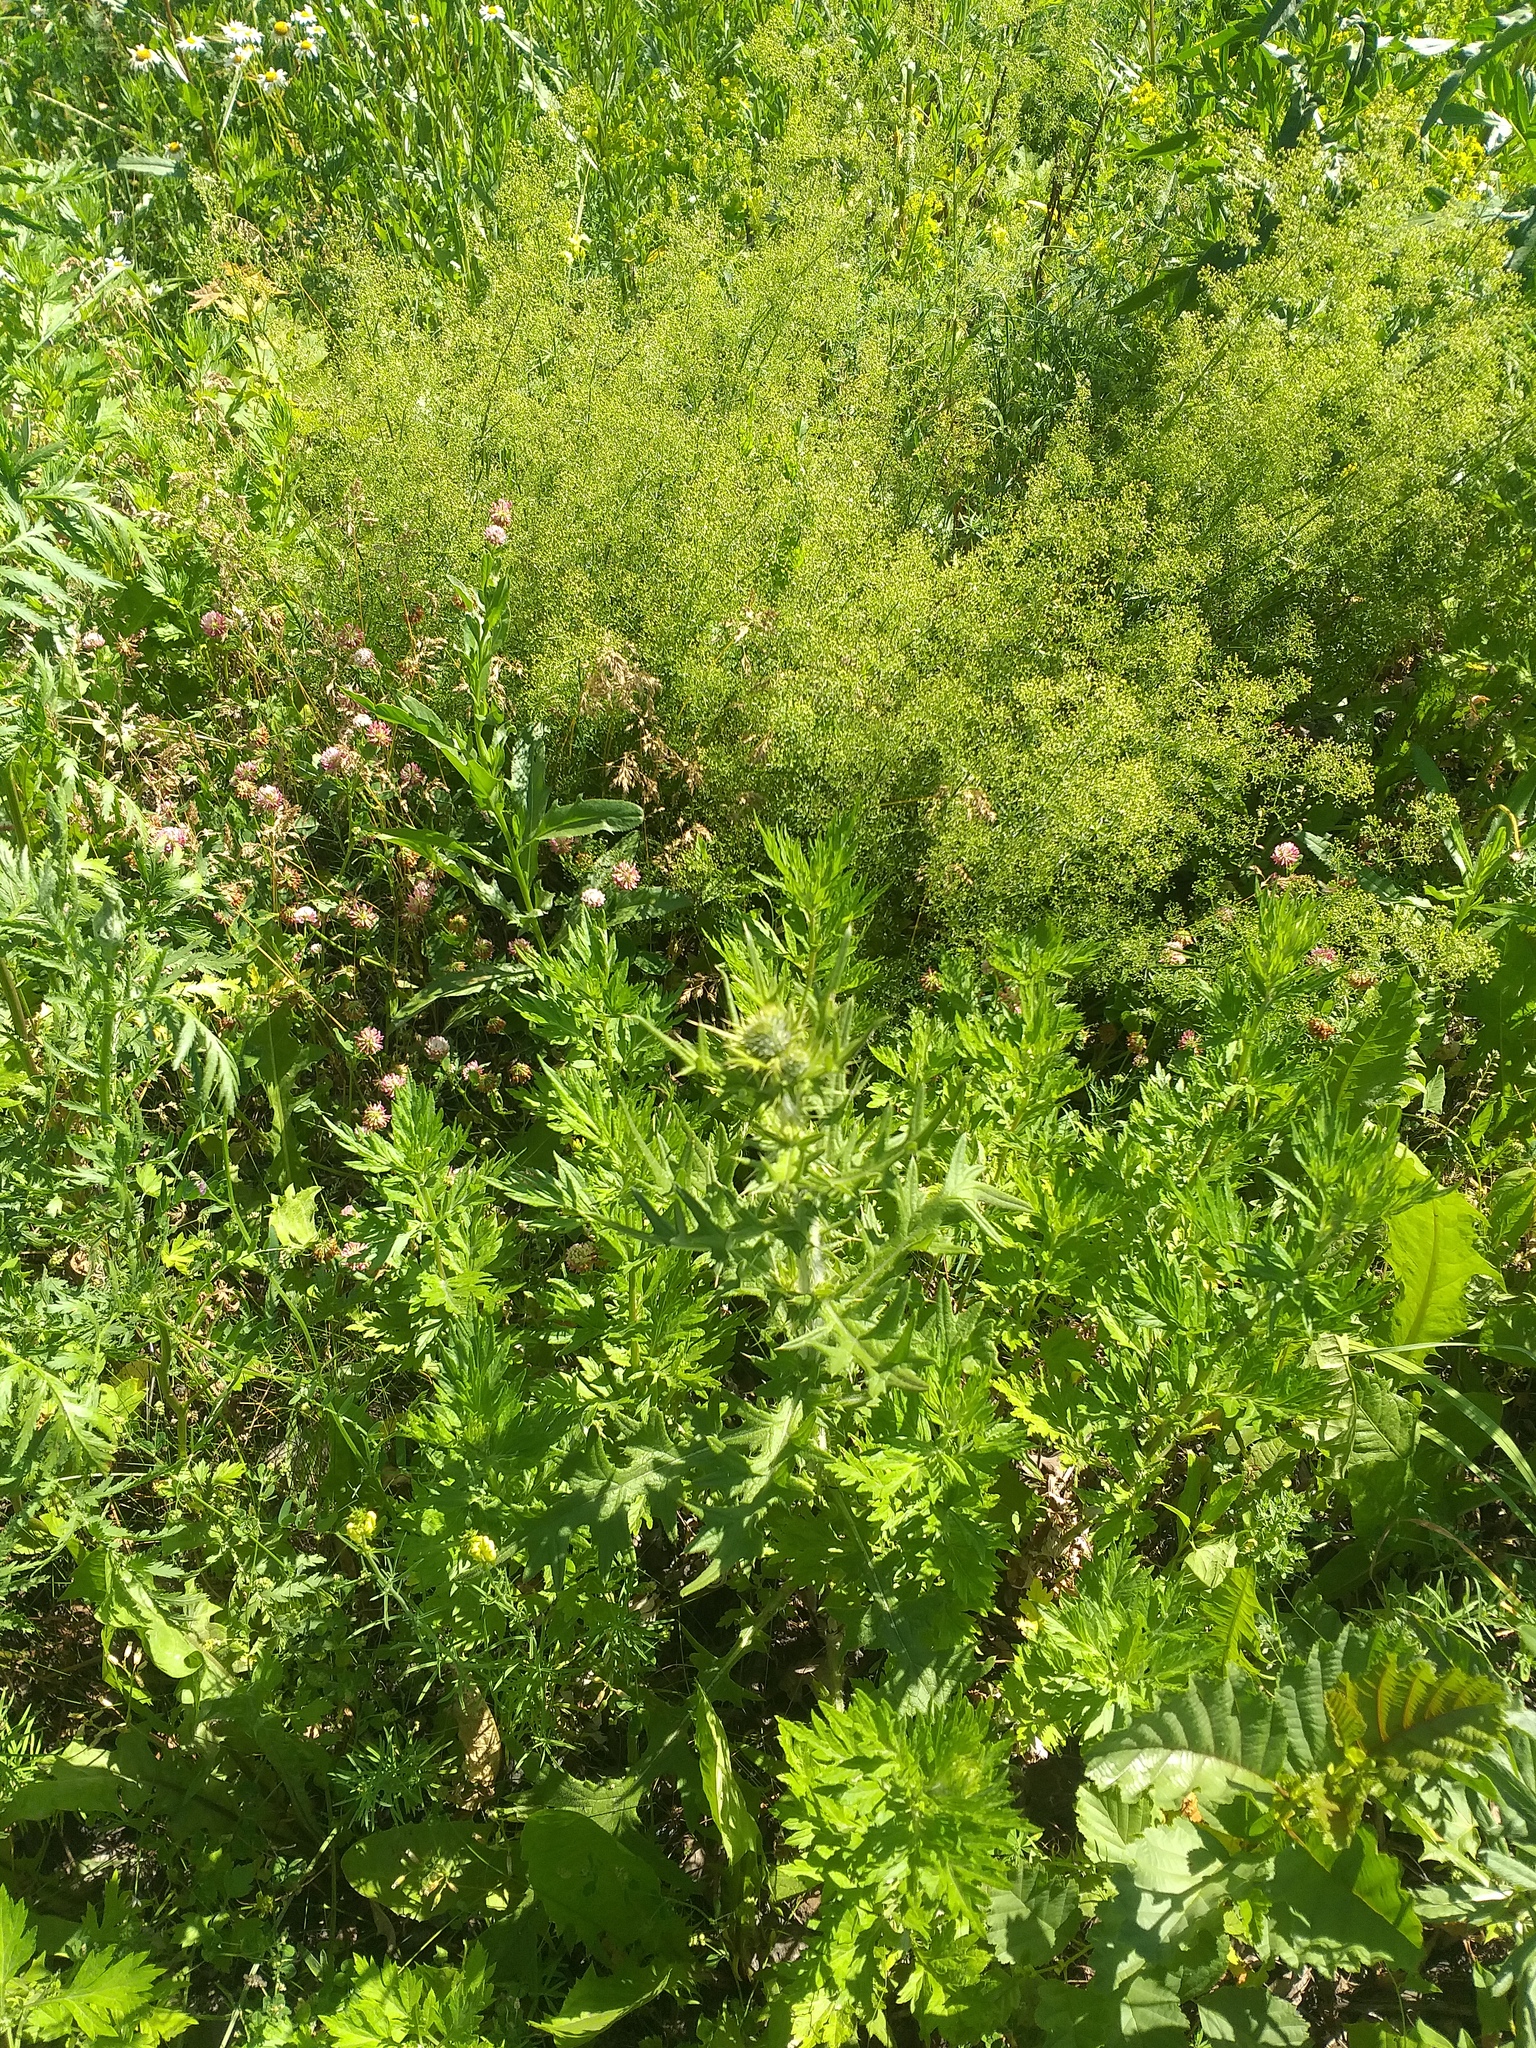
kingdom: Plantae
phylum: Tracheophyta
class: Magnoliopsida
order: Asterales
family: Asteraceae
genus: Cirsium
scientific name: Cirsium vulgare
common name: Bull thistle
